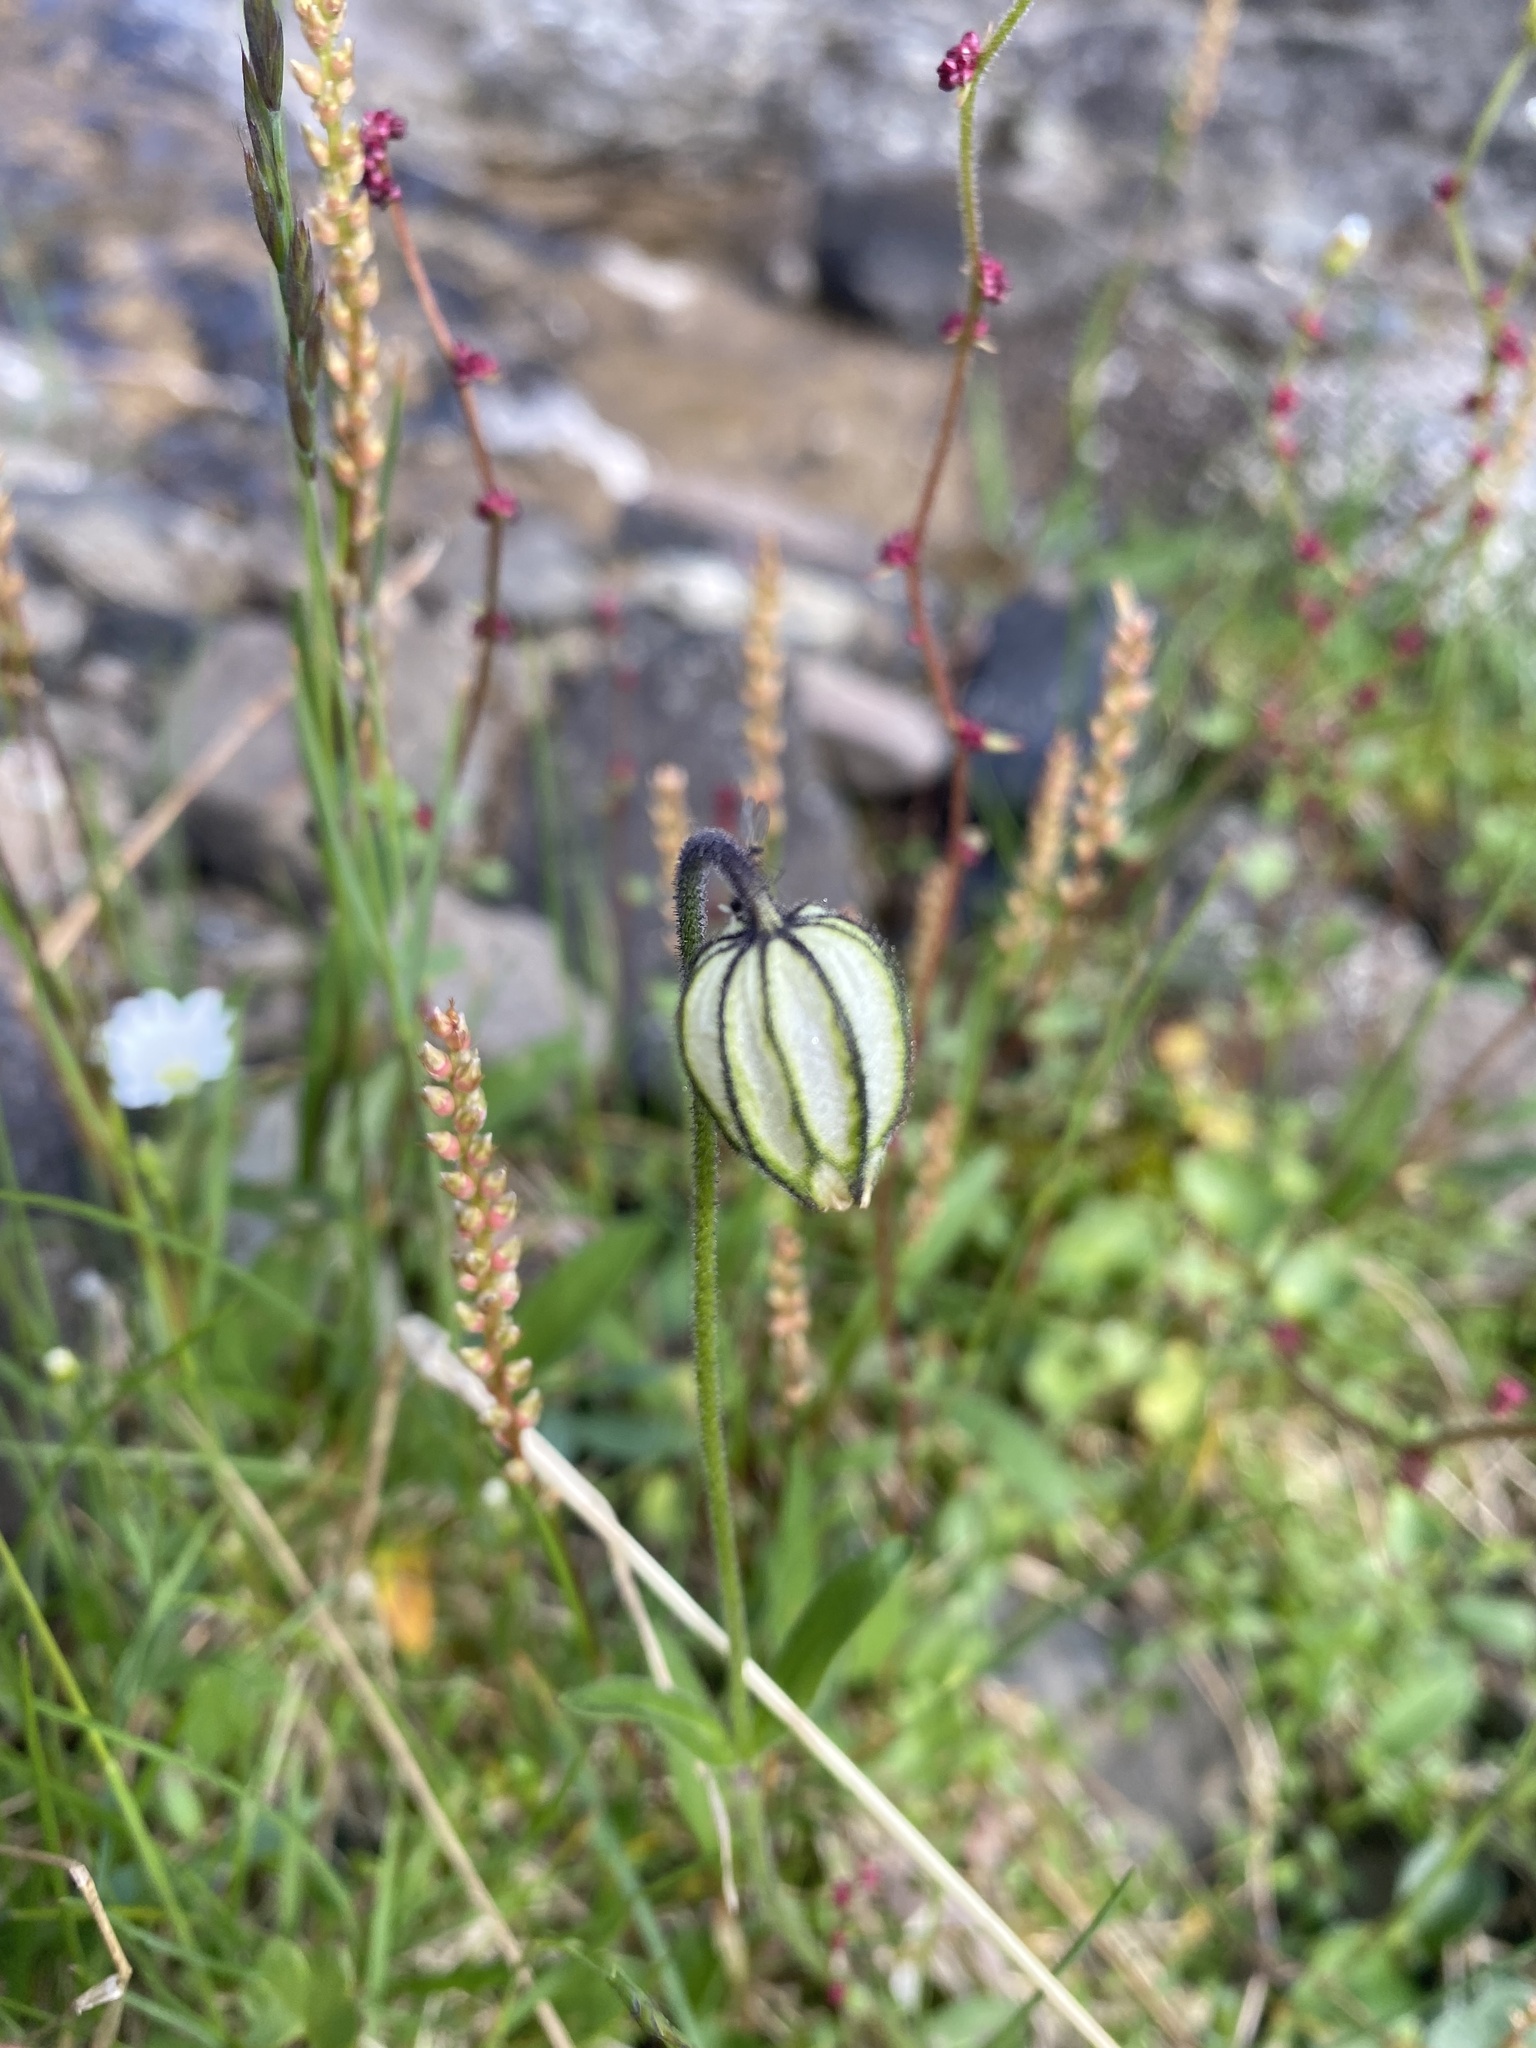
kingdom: Plantae
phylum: Tracheophyta
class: Magnoliopsida
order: Caryophyllales
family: Caryophyllaceae
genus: Silene
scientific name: Silene wahlbergella
